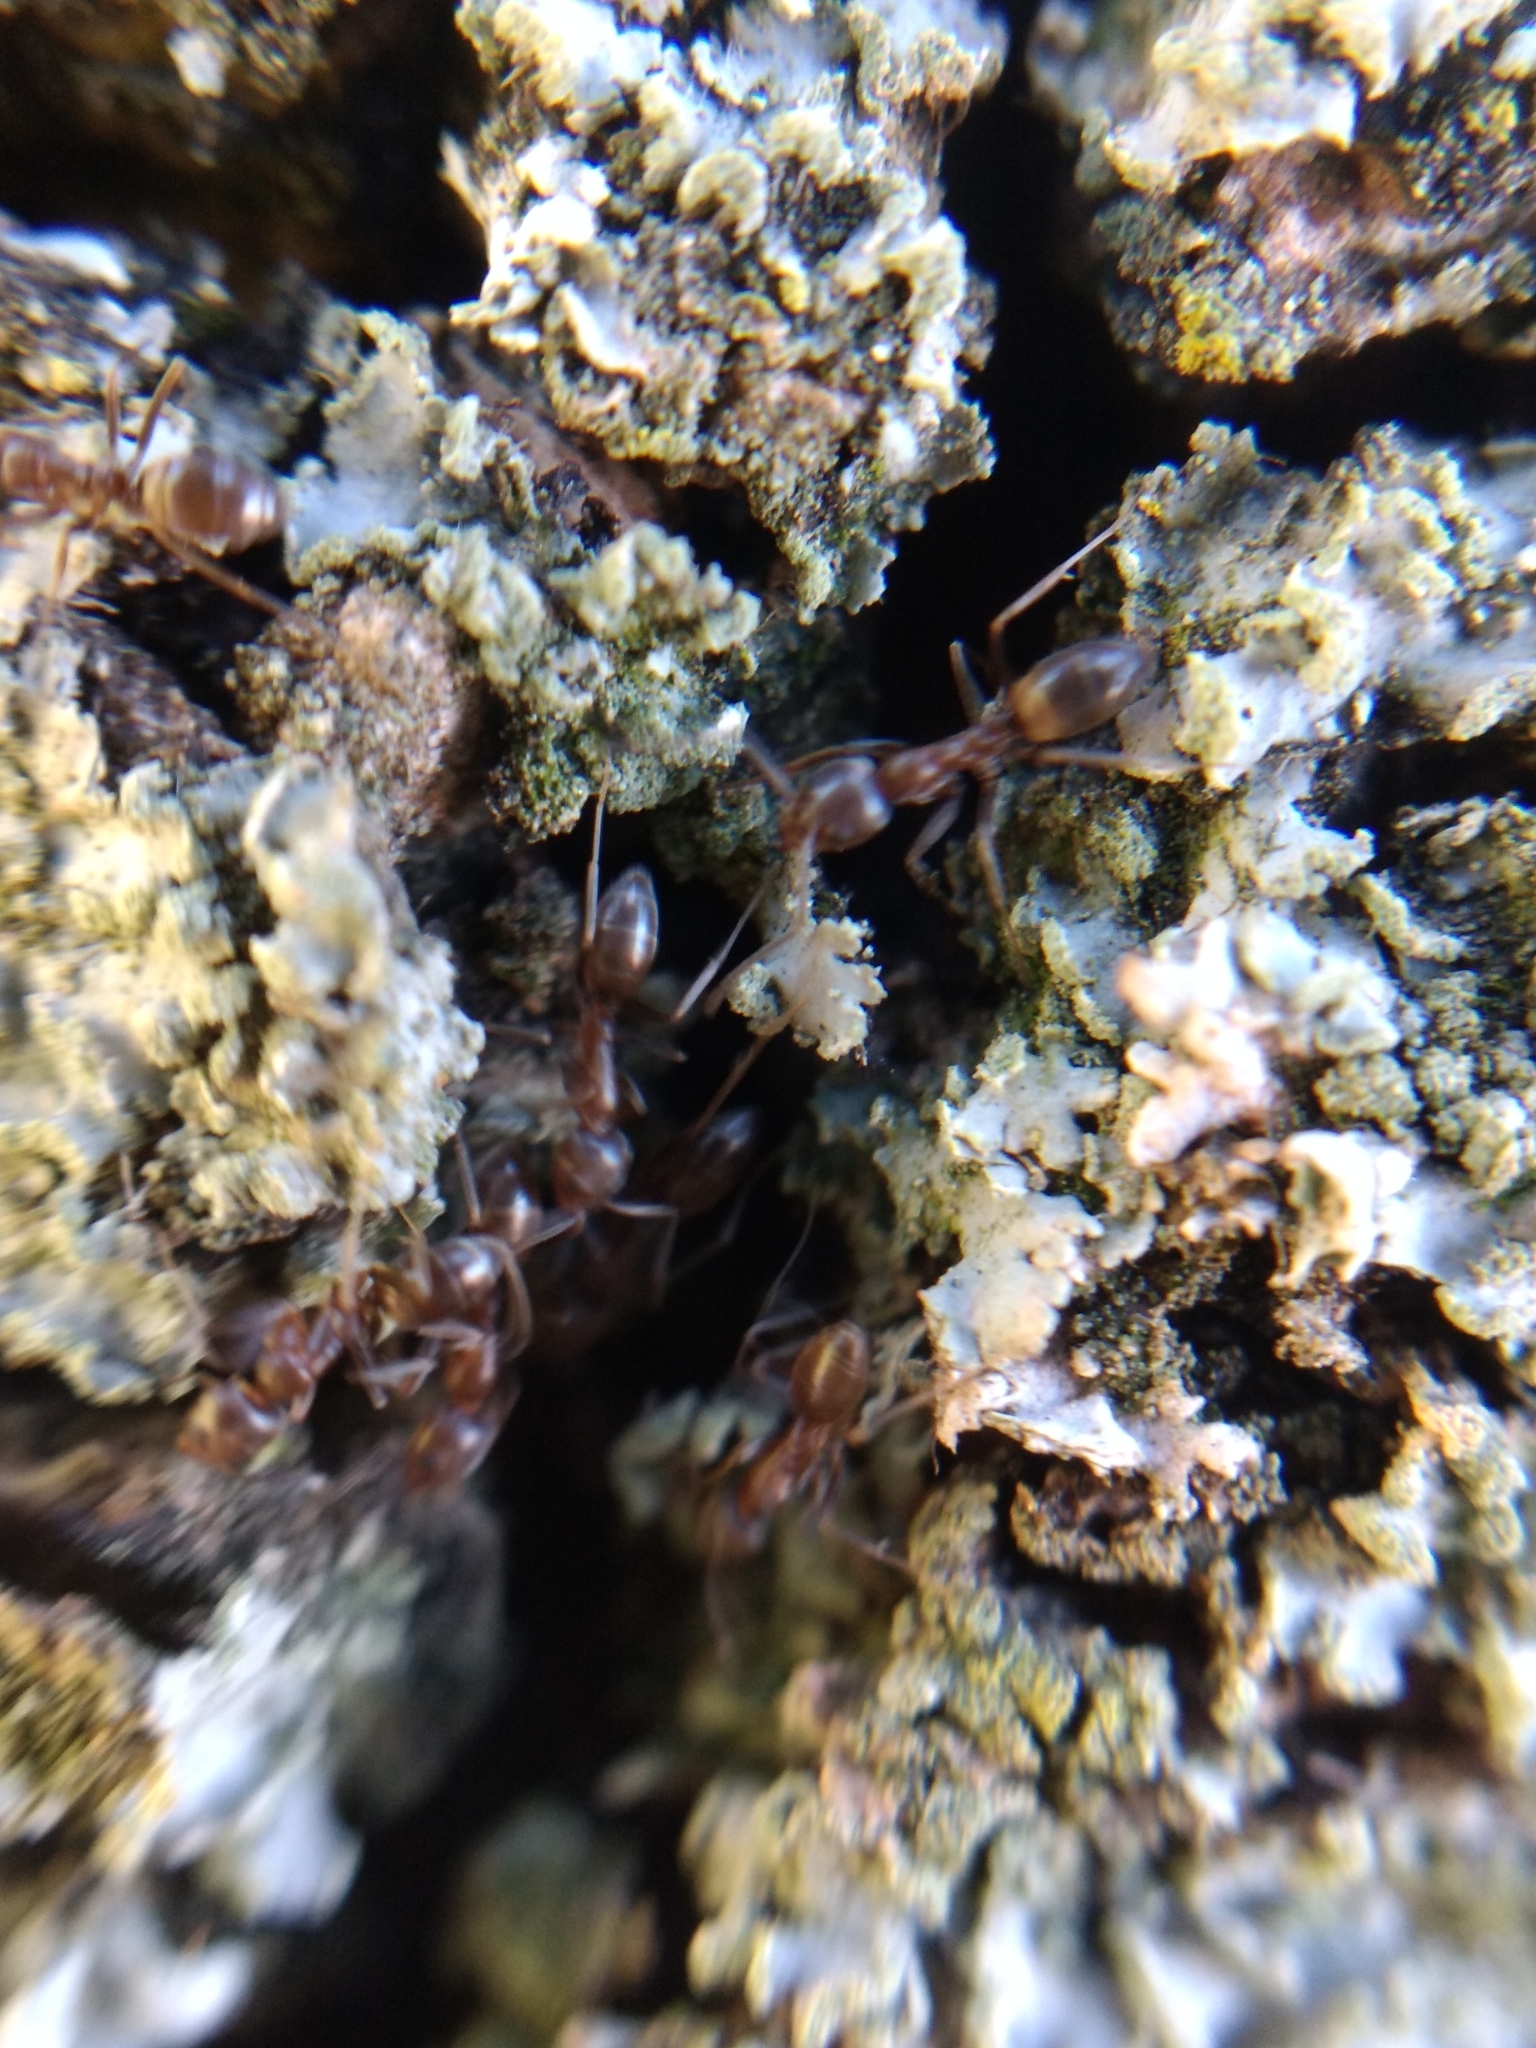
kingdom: Animalia
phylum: Arthropoda
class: Insecta
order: Hymenoptera
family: Formicidae
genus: Linepithema
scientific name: Linepithema humile
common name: Argentine ant
